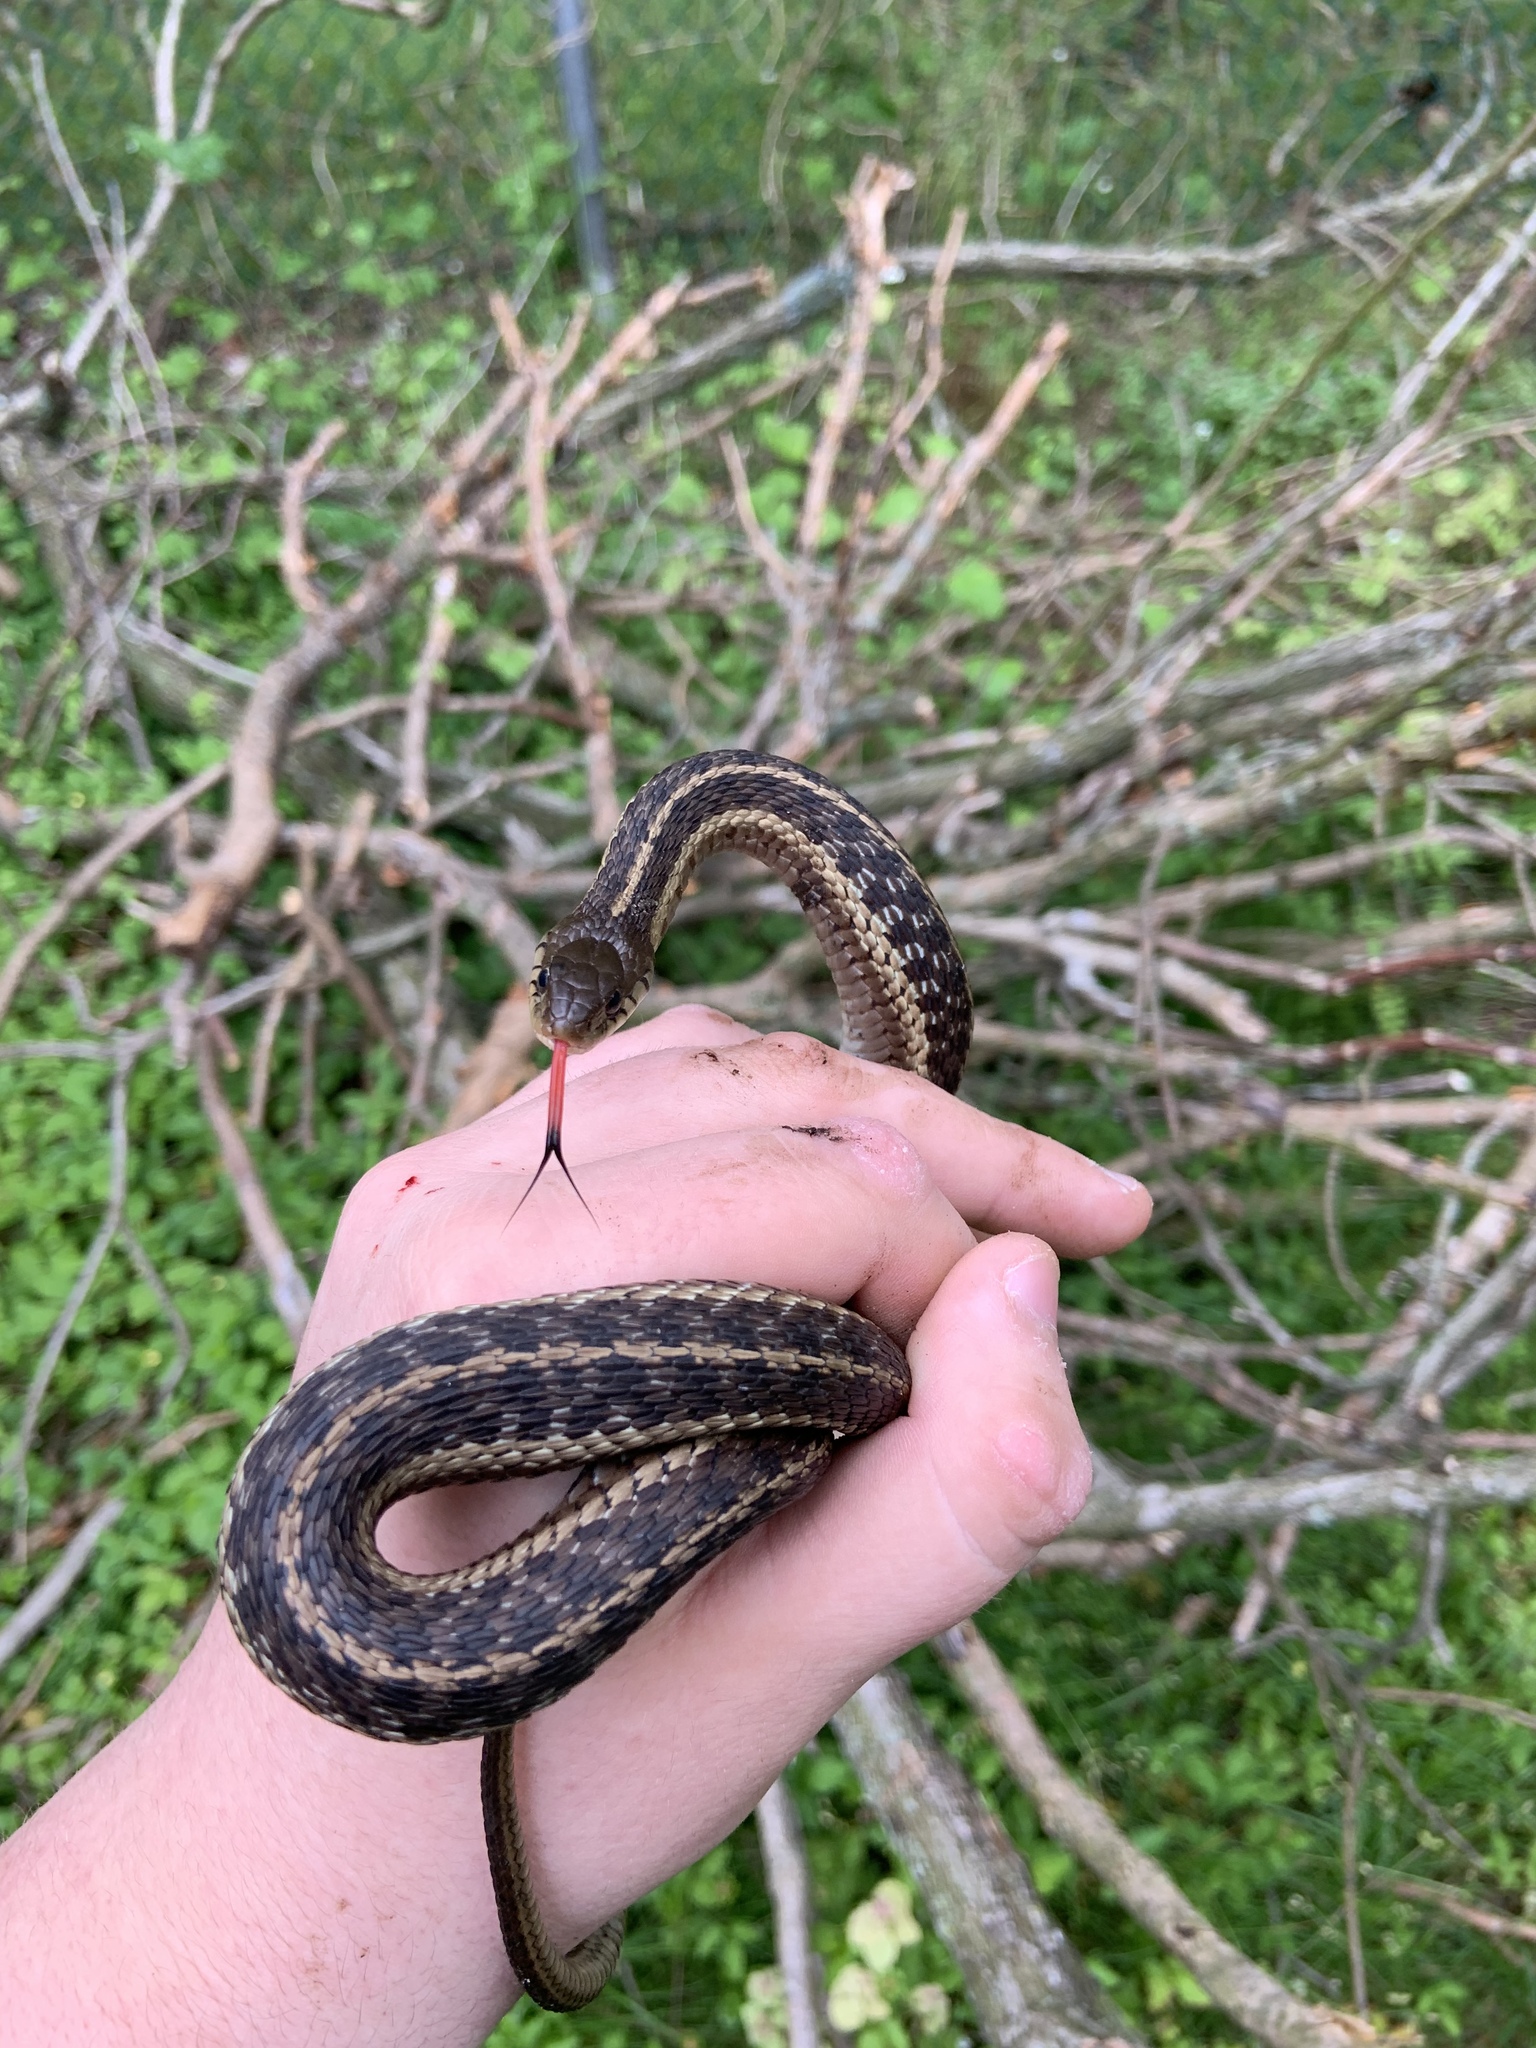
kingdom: Animalia
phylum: Chordata
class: Squamata
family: Colubridae
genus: Thamnophis
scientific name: Thamnophis sirtalis
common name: Common garter snake
